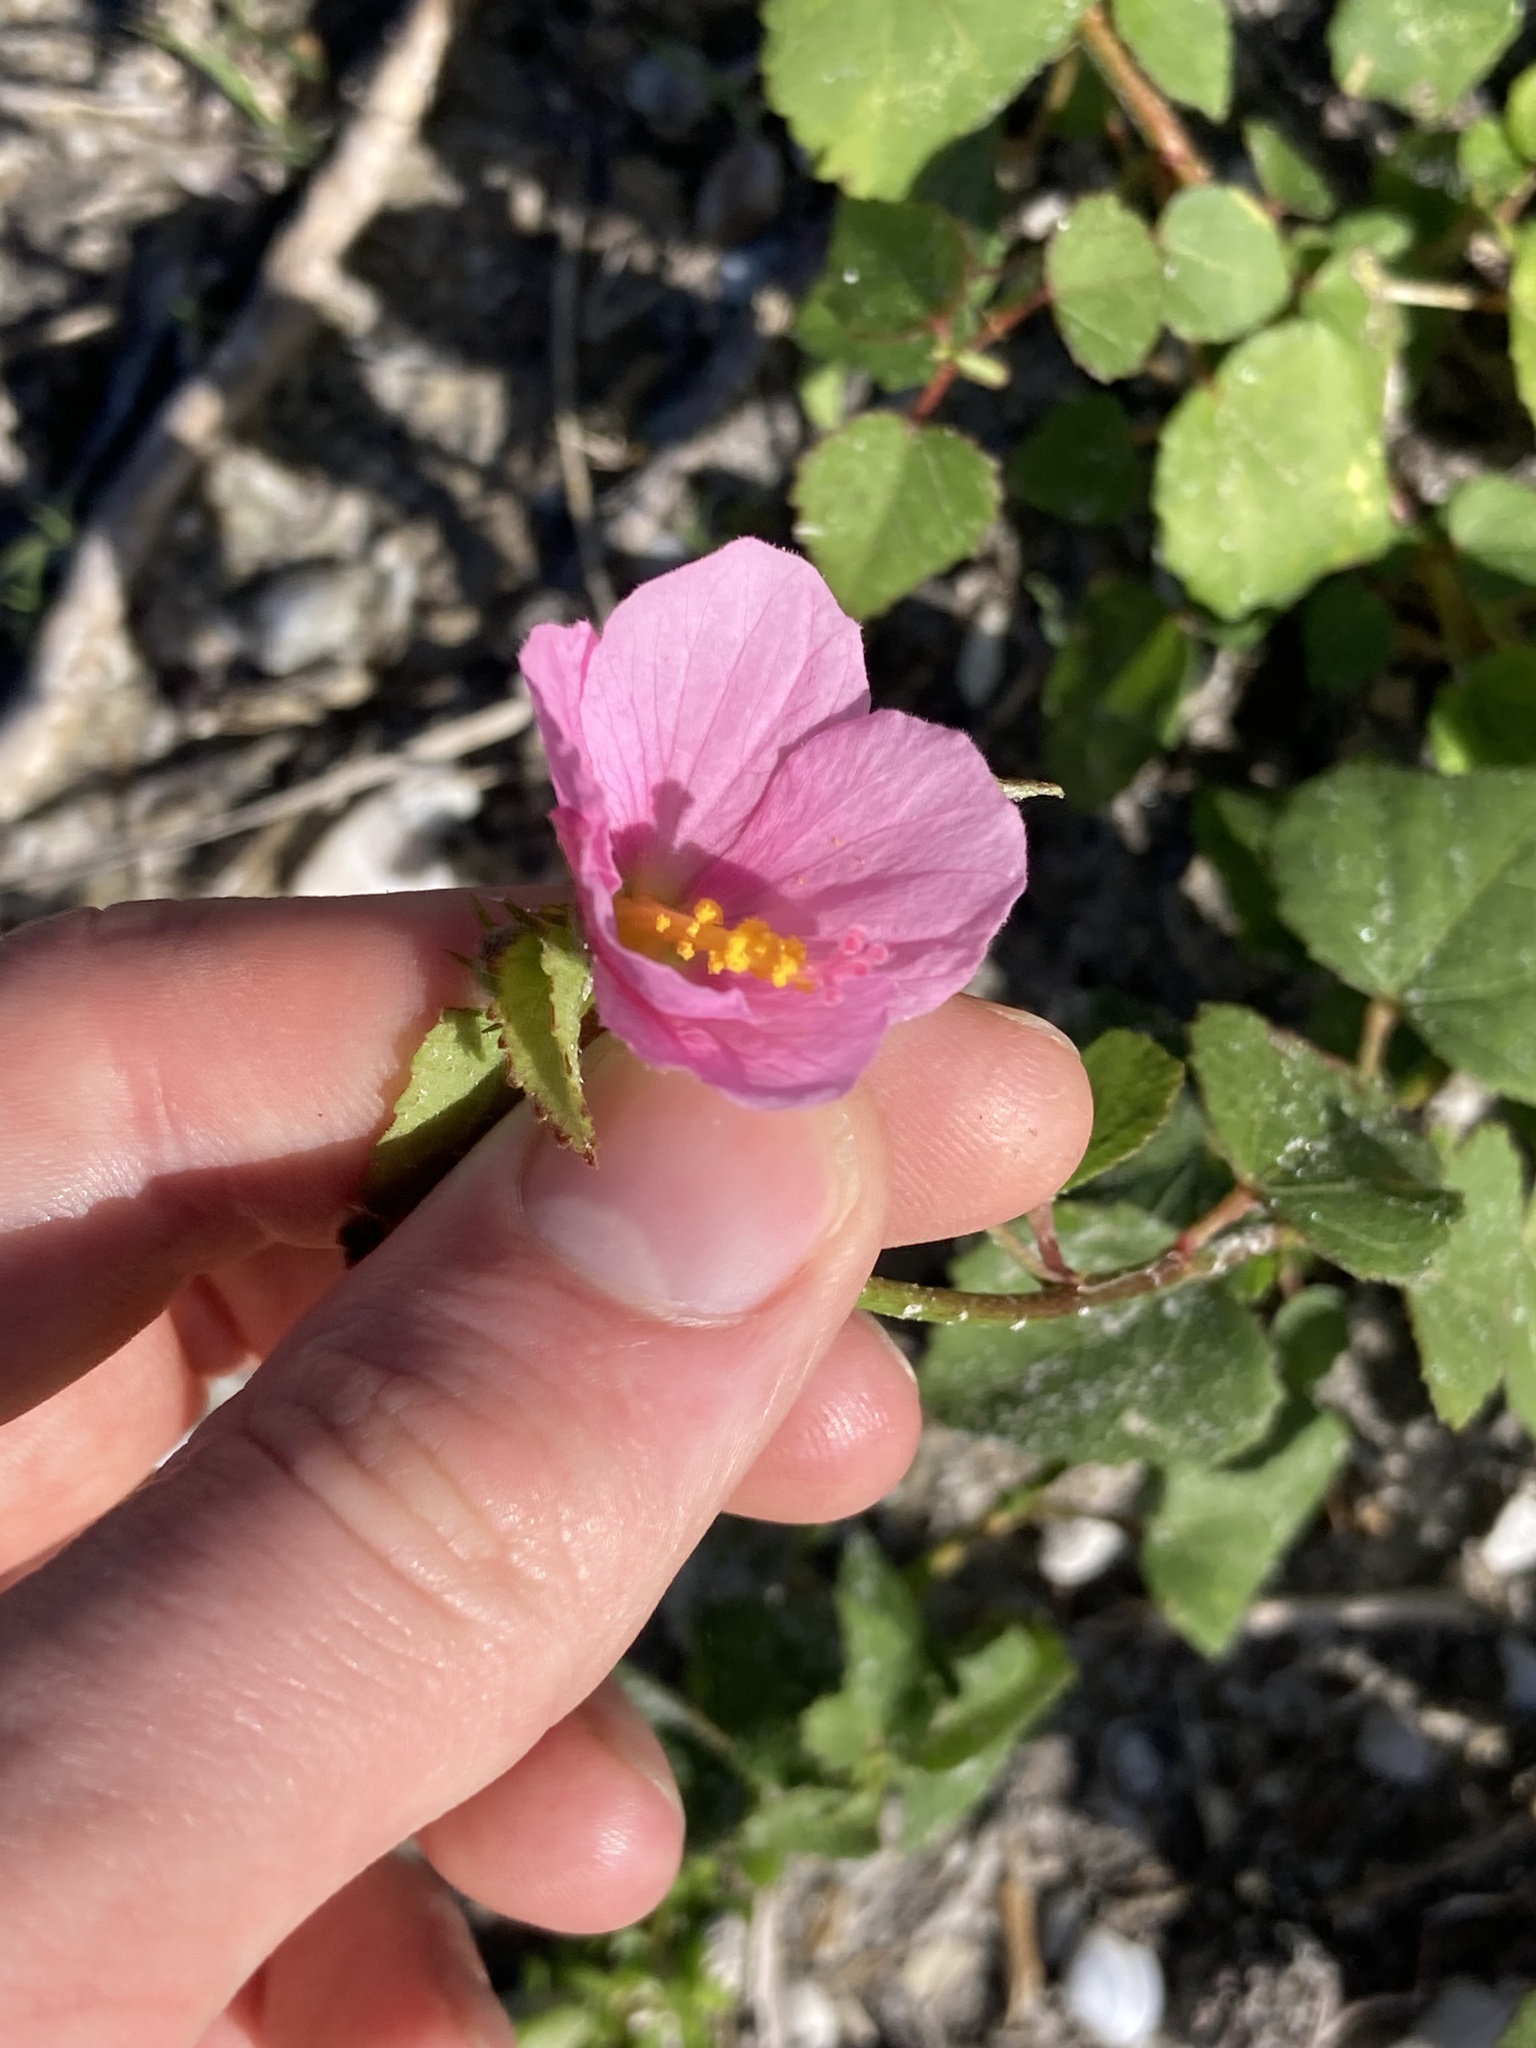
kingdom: Plantae
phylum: Tracheophyta
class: Magnoliopsida
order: Malvales
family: Malvaceae
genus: Kosteletzkya
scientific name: Kosteletzkya pentacarpos
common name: Virginia saltmarsh mallow
